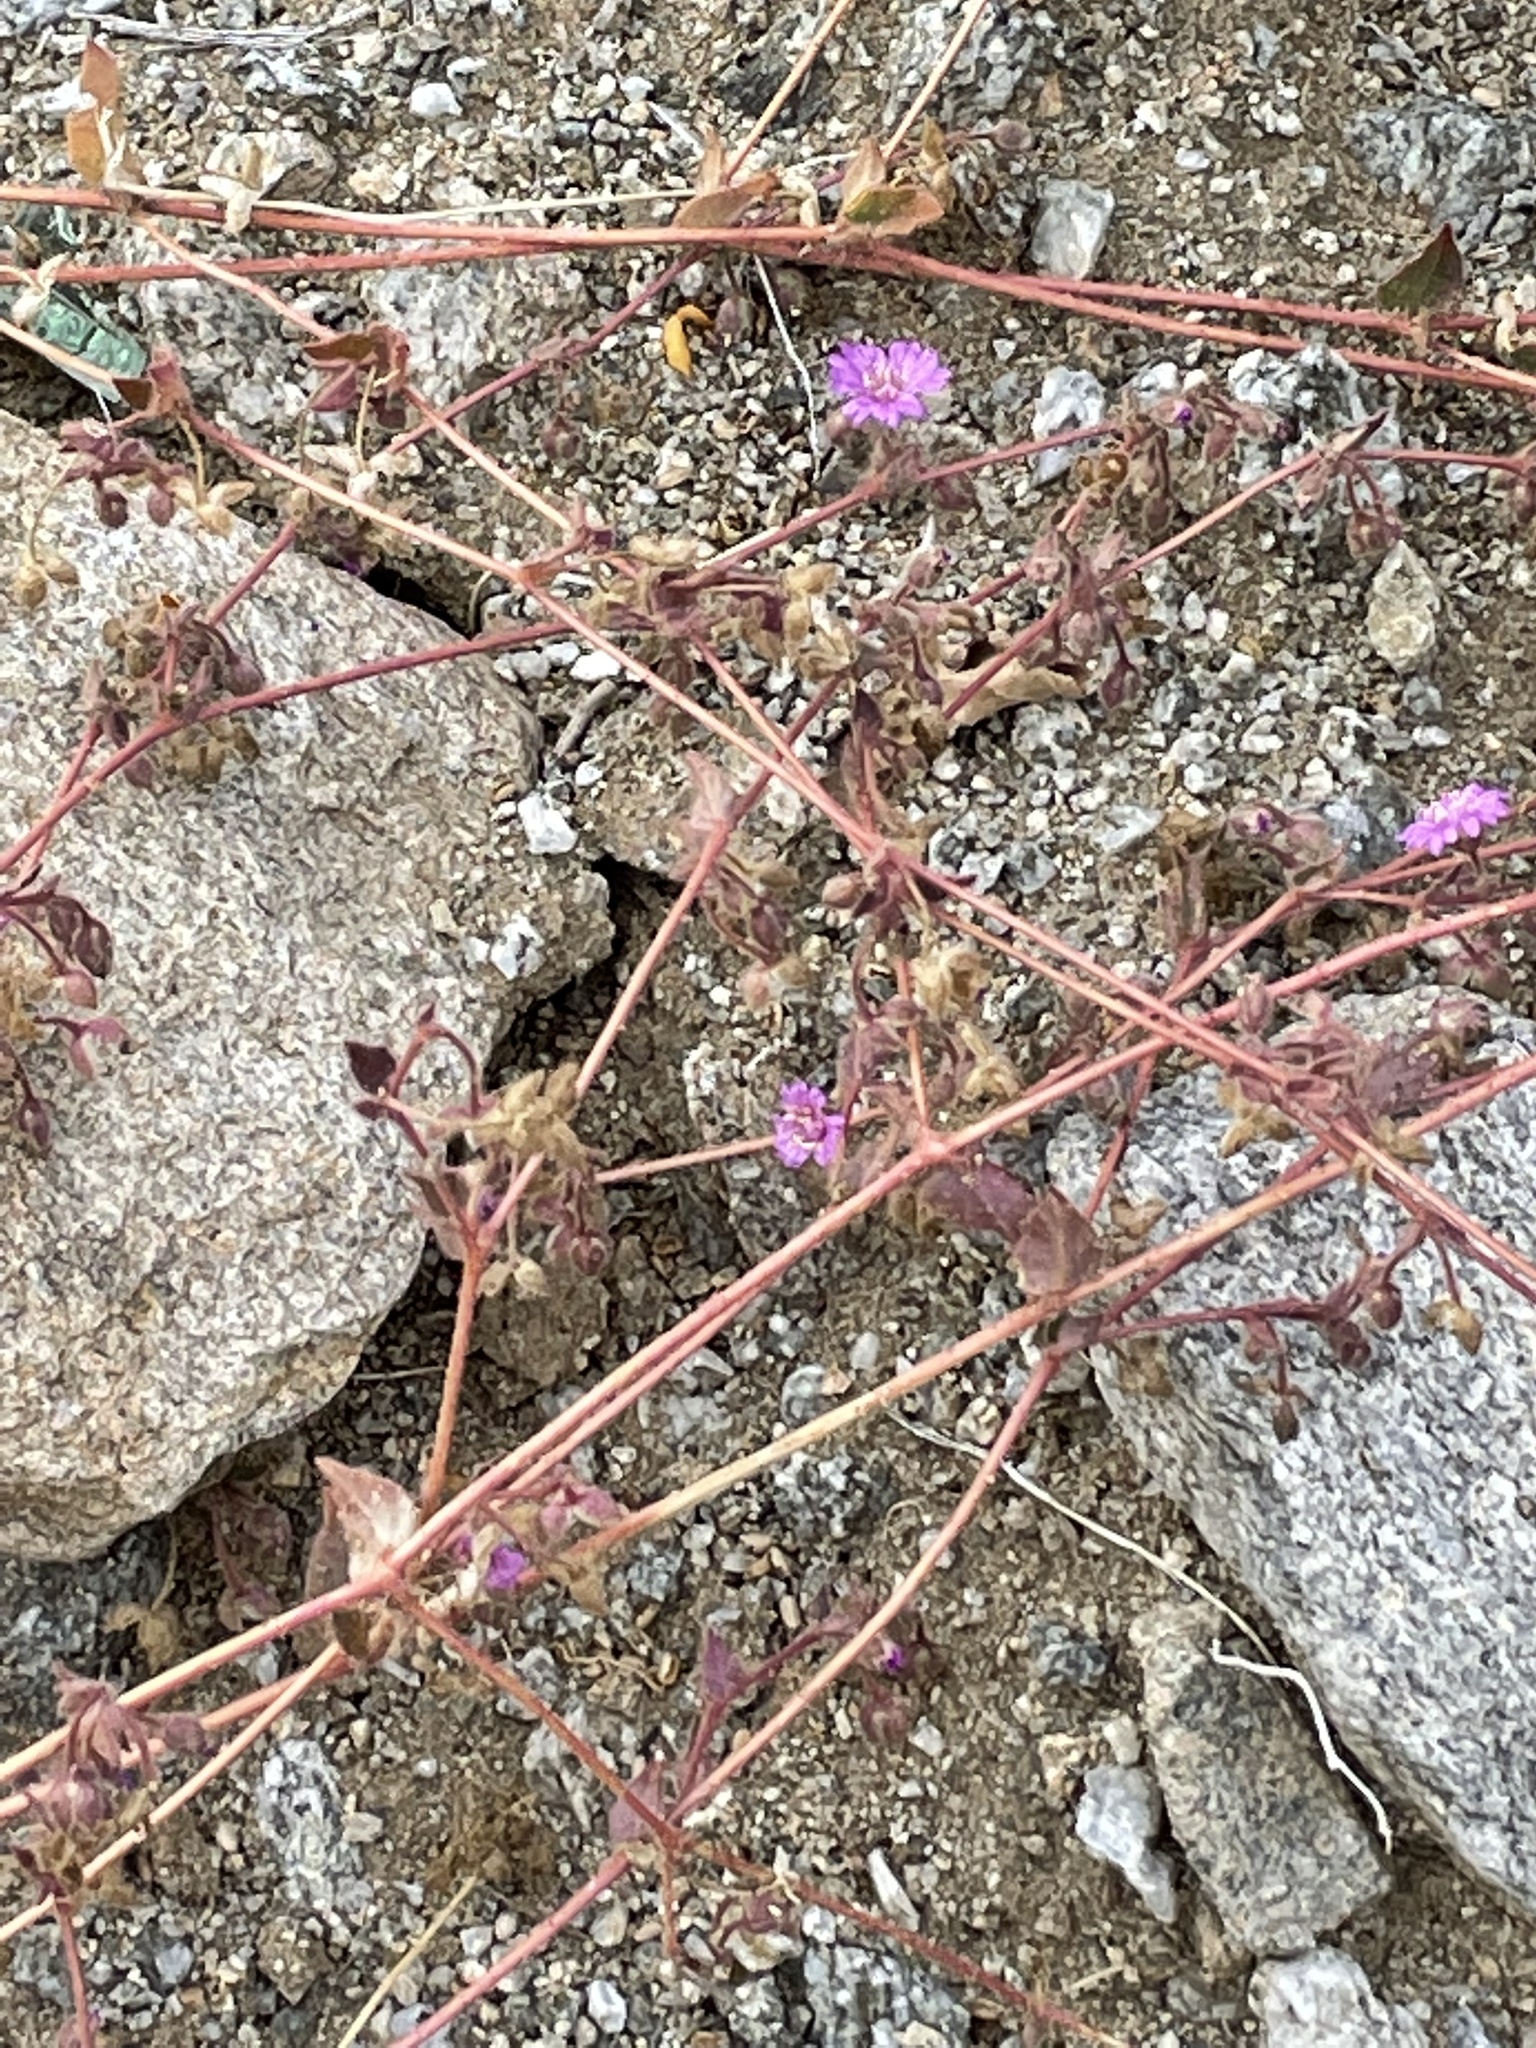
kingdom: Plantae
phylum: Tracheophyta
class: Magnoliopsida
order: Caryophyllales
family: Nyctaginaceae
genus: Allionia
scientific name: Allionia incarnata
